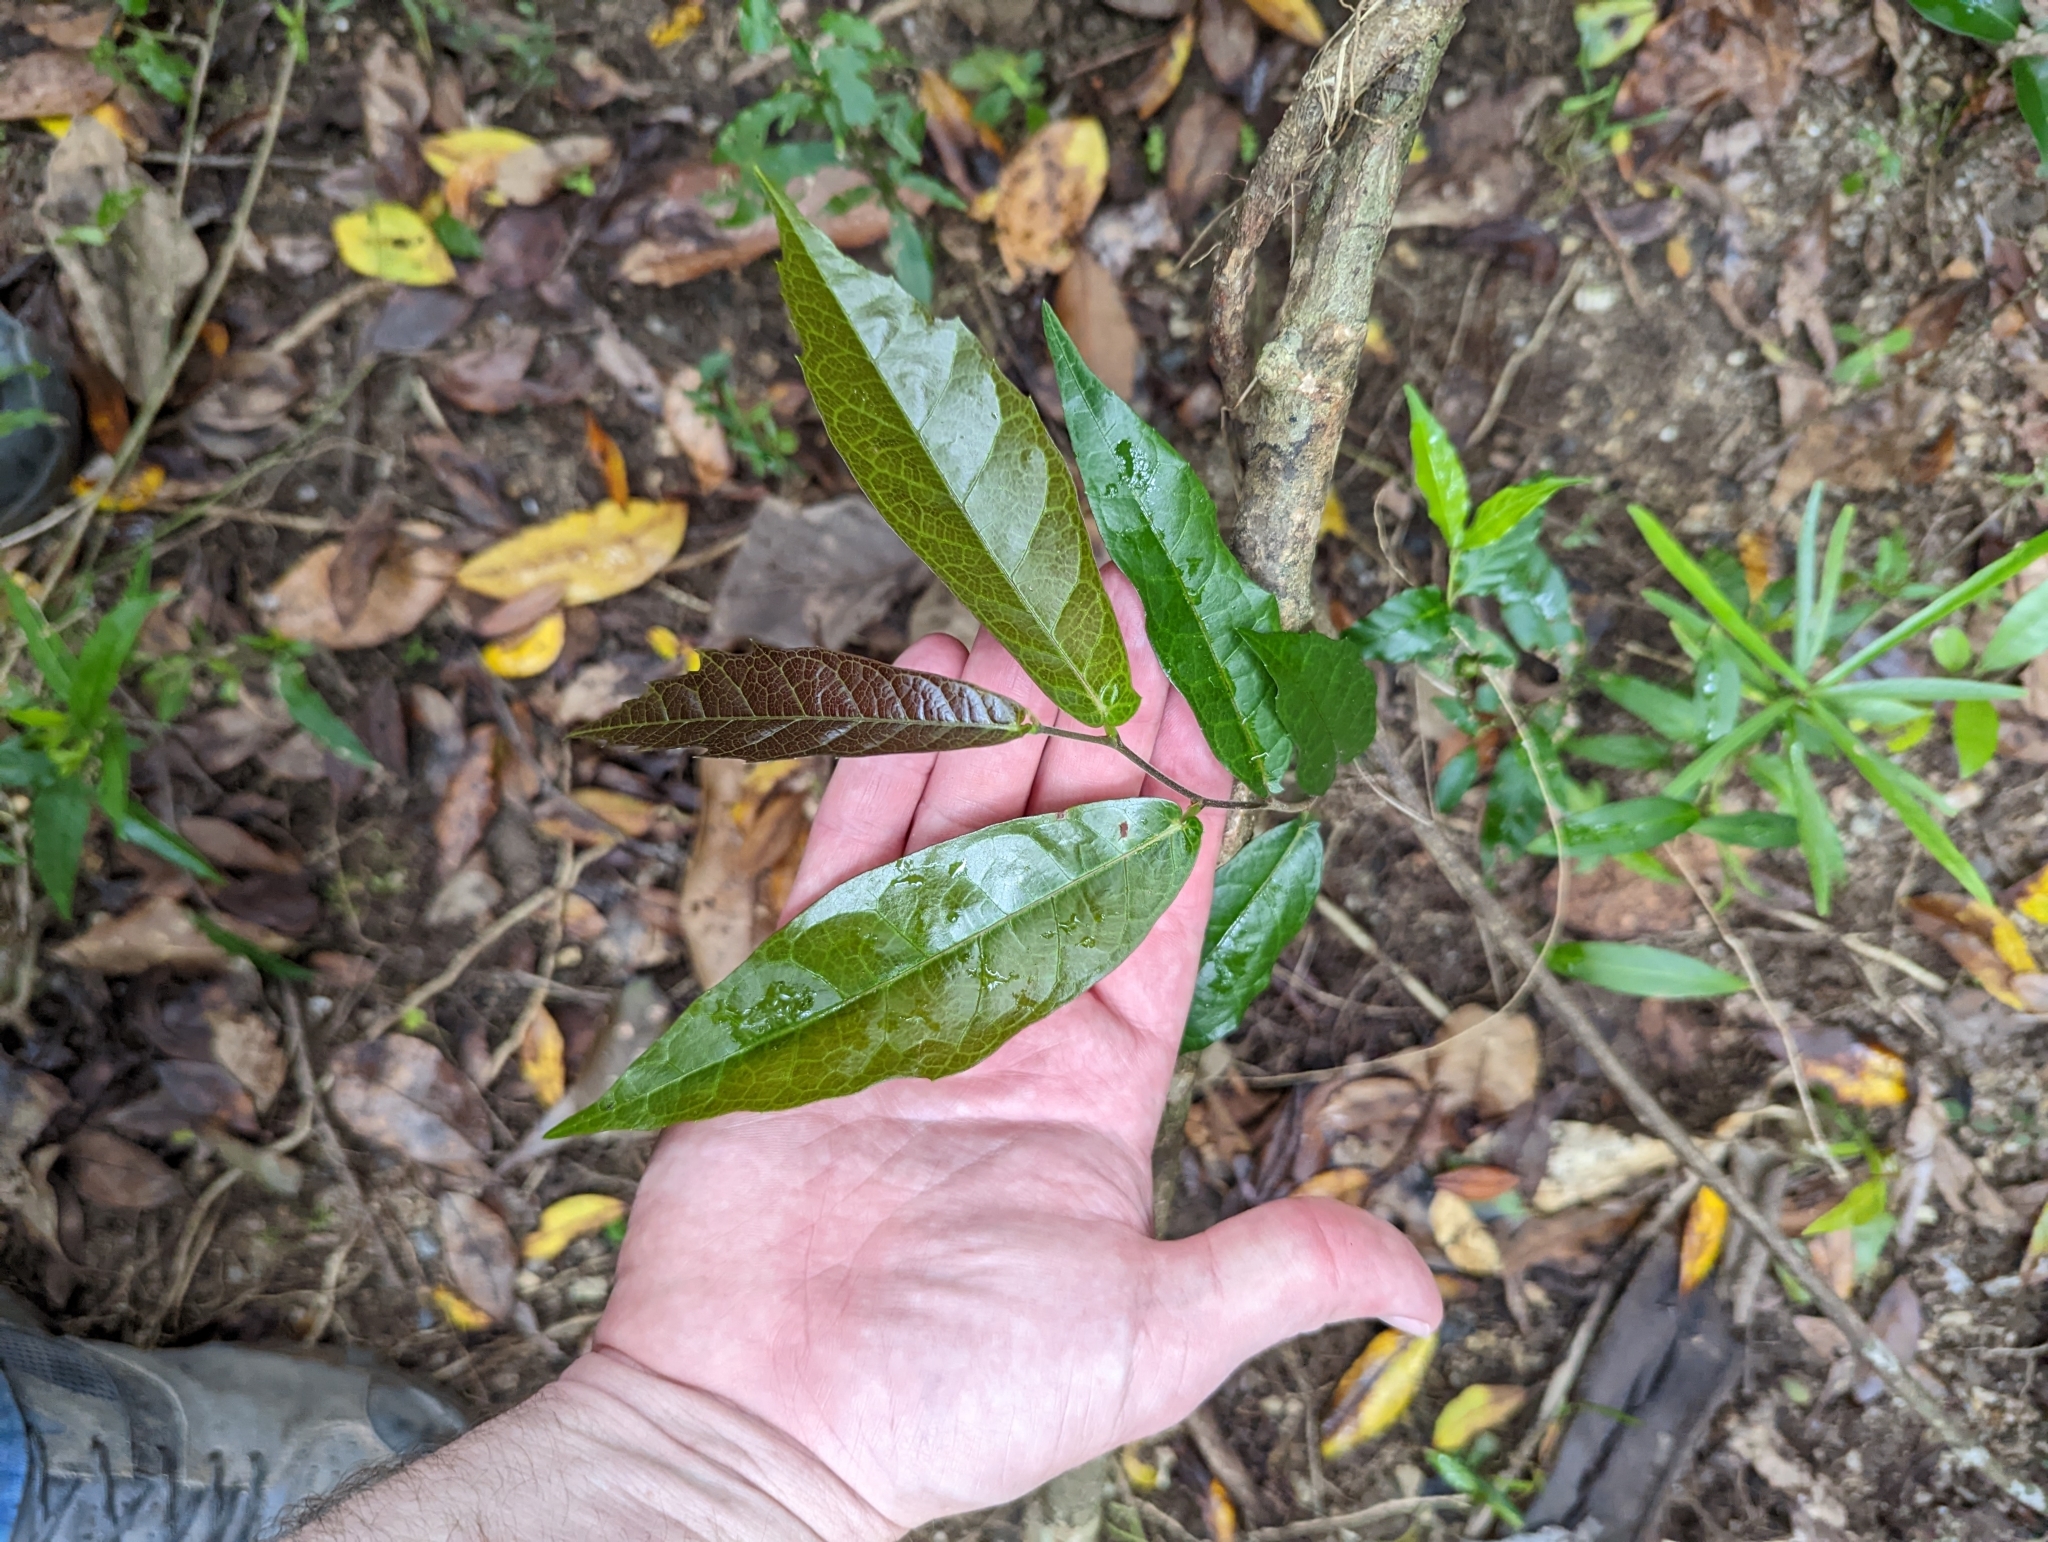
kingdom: Plantae
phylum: Tracheophyta
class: Magnoliopsida
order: Rosales
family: Moraceae
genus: Malaisia
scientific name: Malaisia scandens
